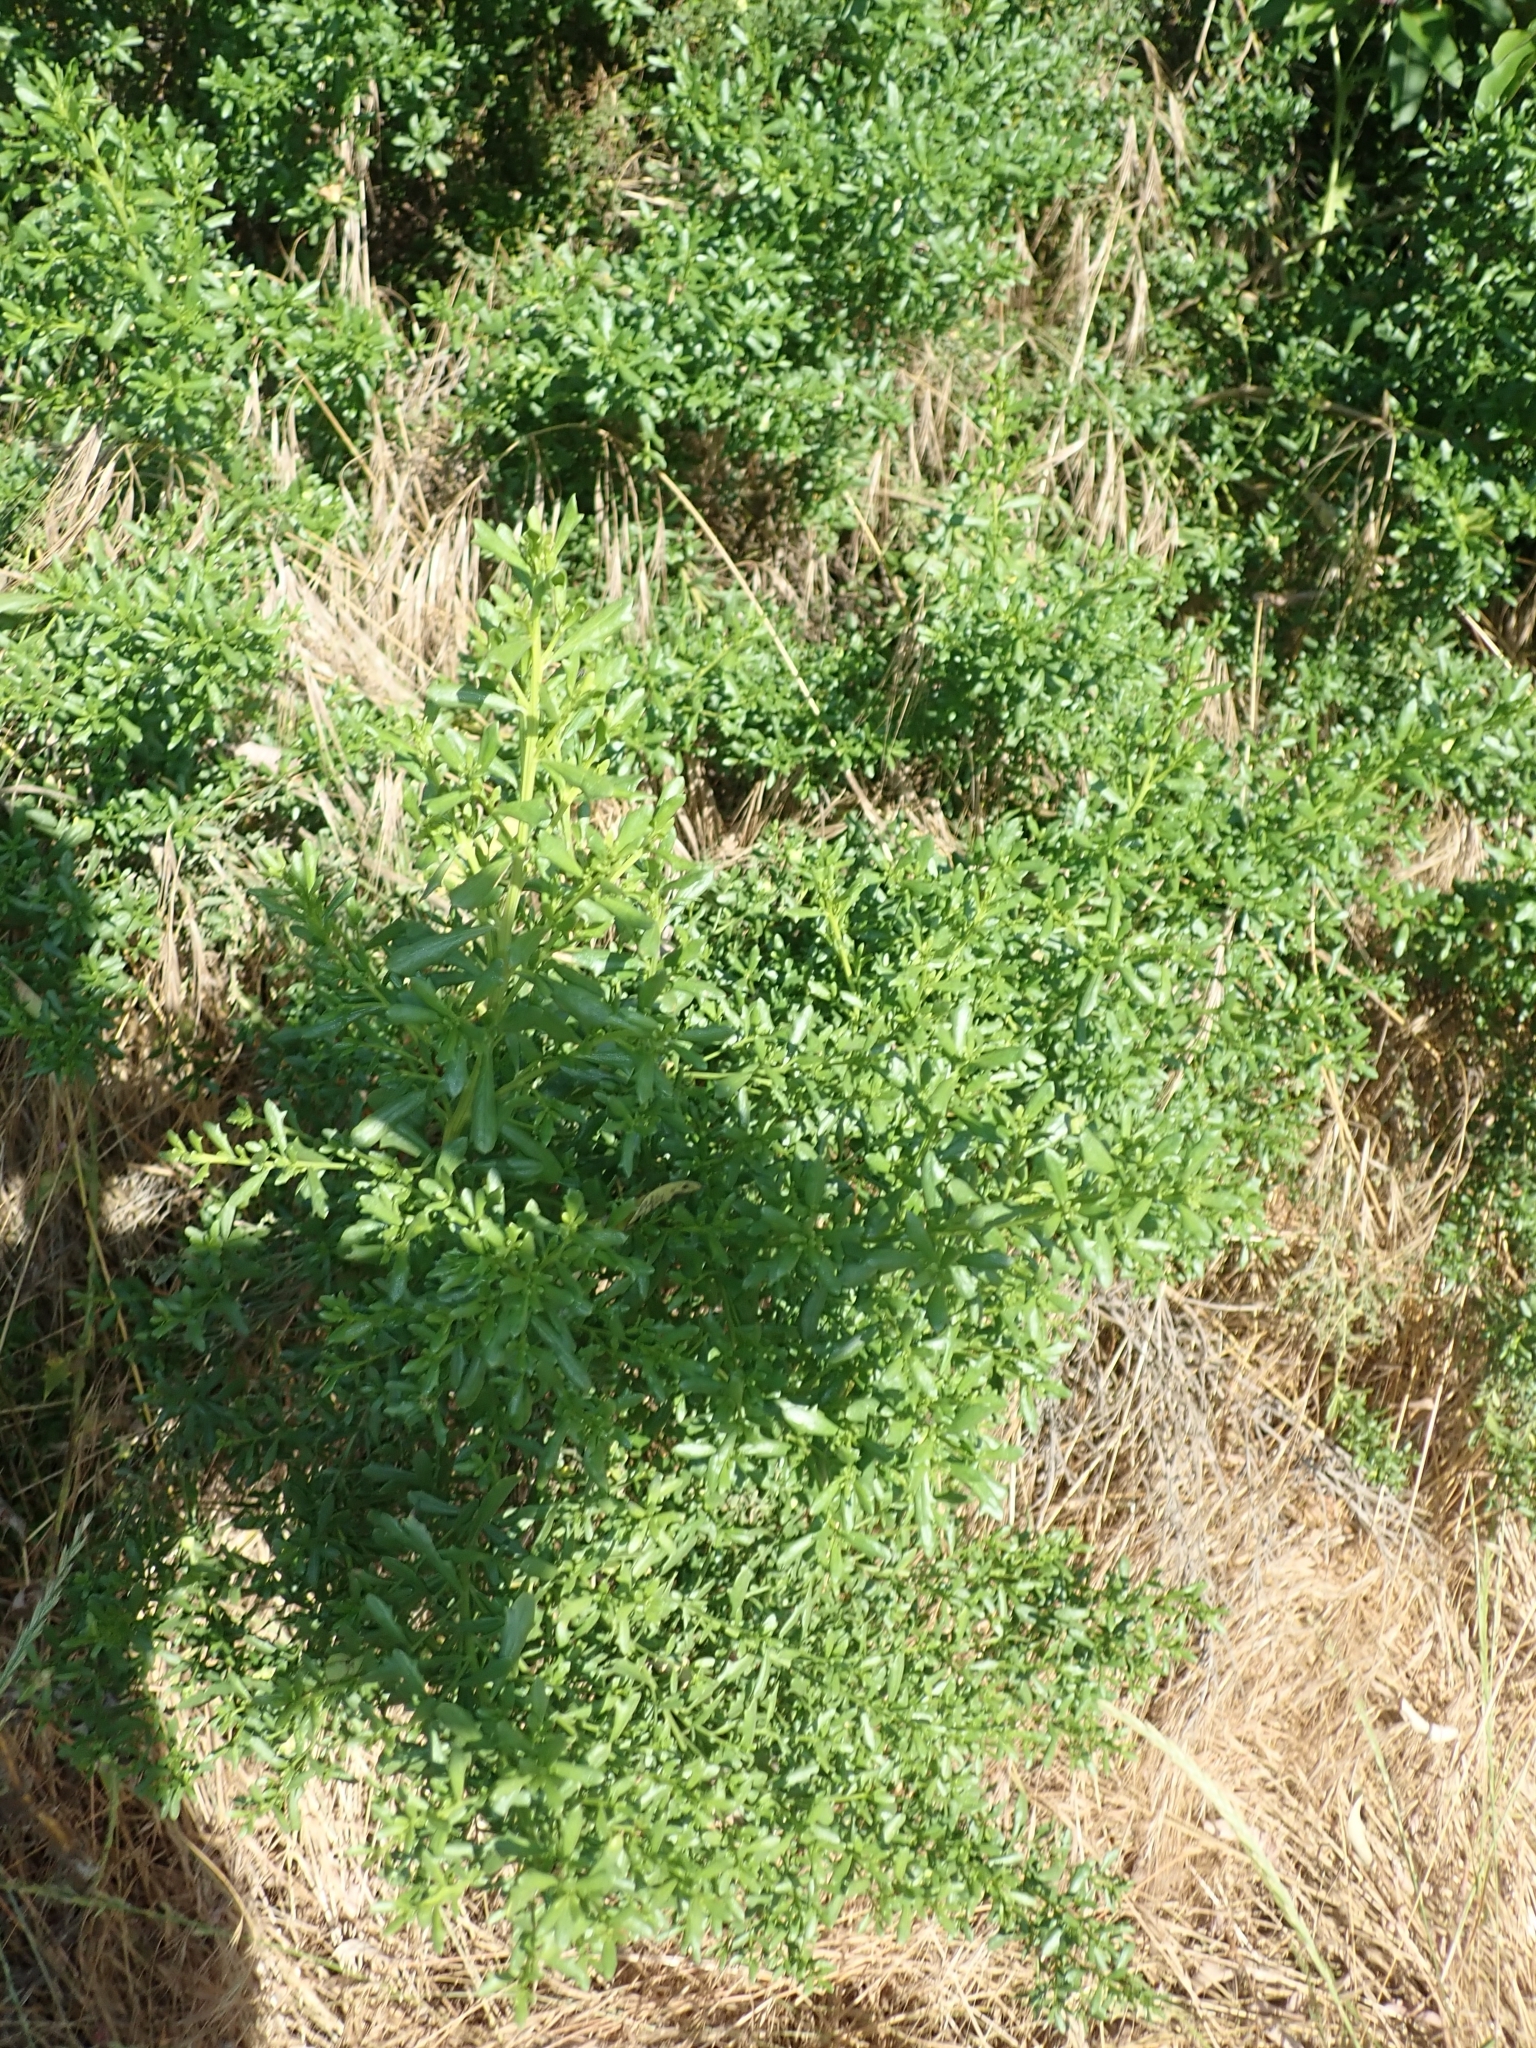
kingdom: Plantae
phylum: Tracheophyta
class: Magnoliopsida
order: Asterales
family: Asteraceae
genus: Baccharis
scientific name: Baccharis pilularis
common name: Coyotebrush
